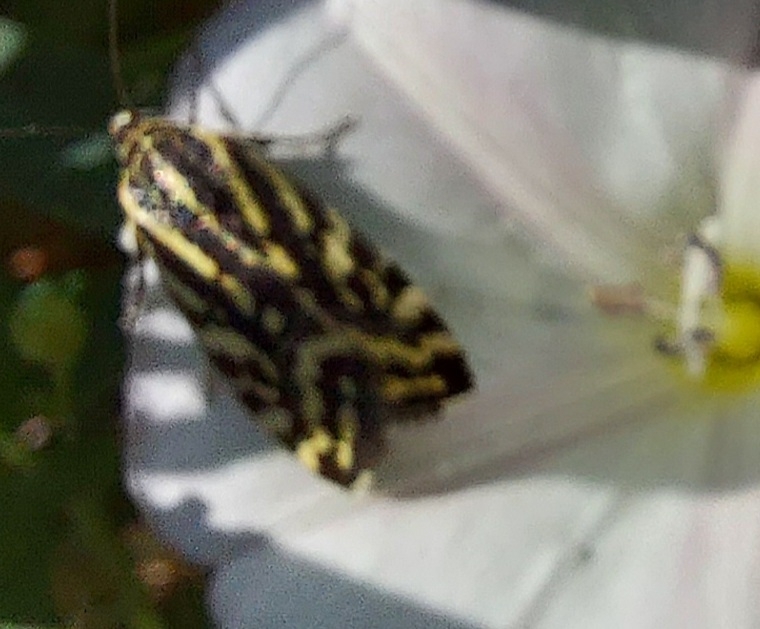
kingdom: Animalia
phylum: Arthropoda
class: Insecta
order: Lepidoptera
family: Noctuidae
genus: Acontia
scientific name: Acontia trabealis
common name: Spotted sulphur
